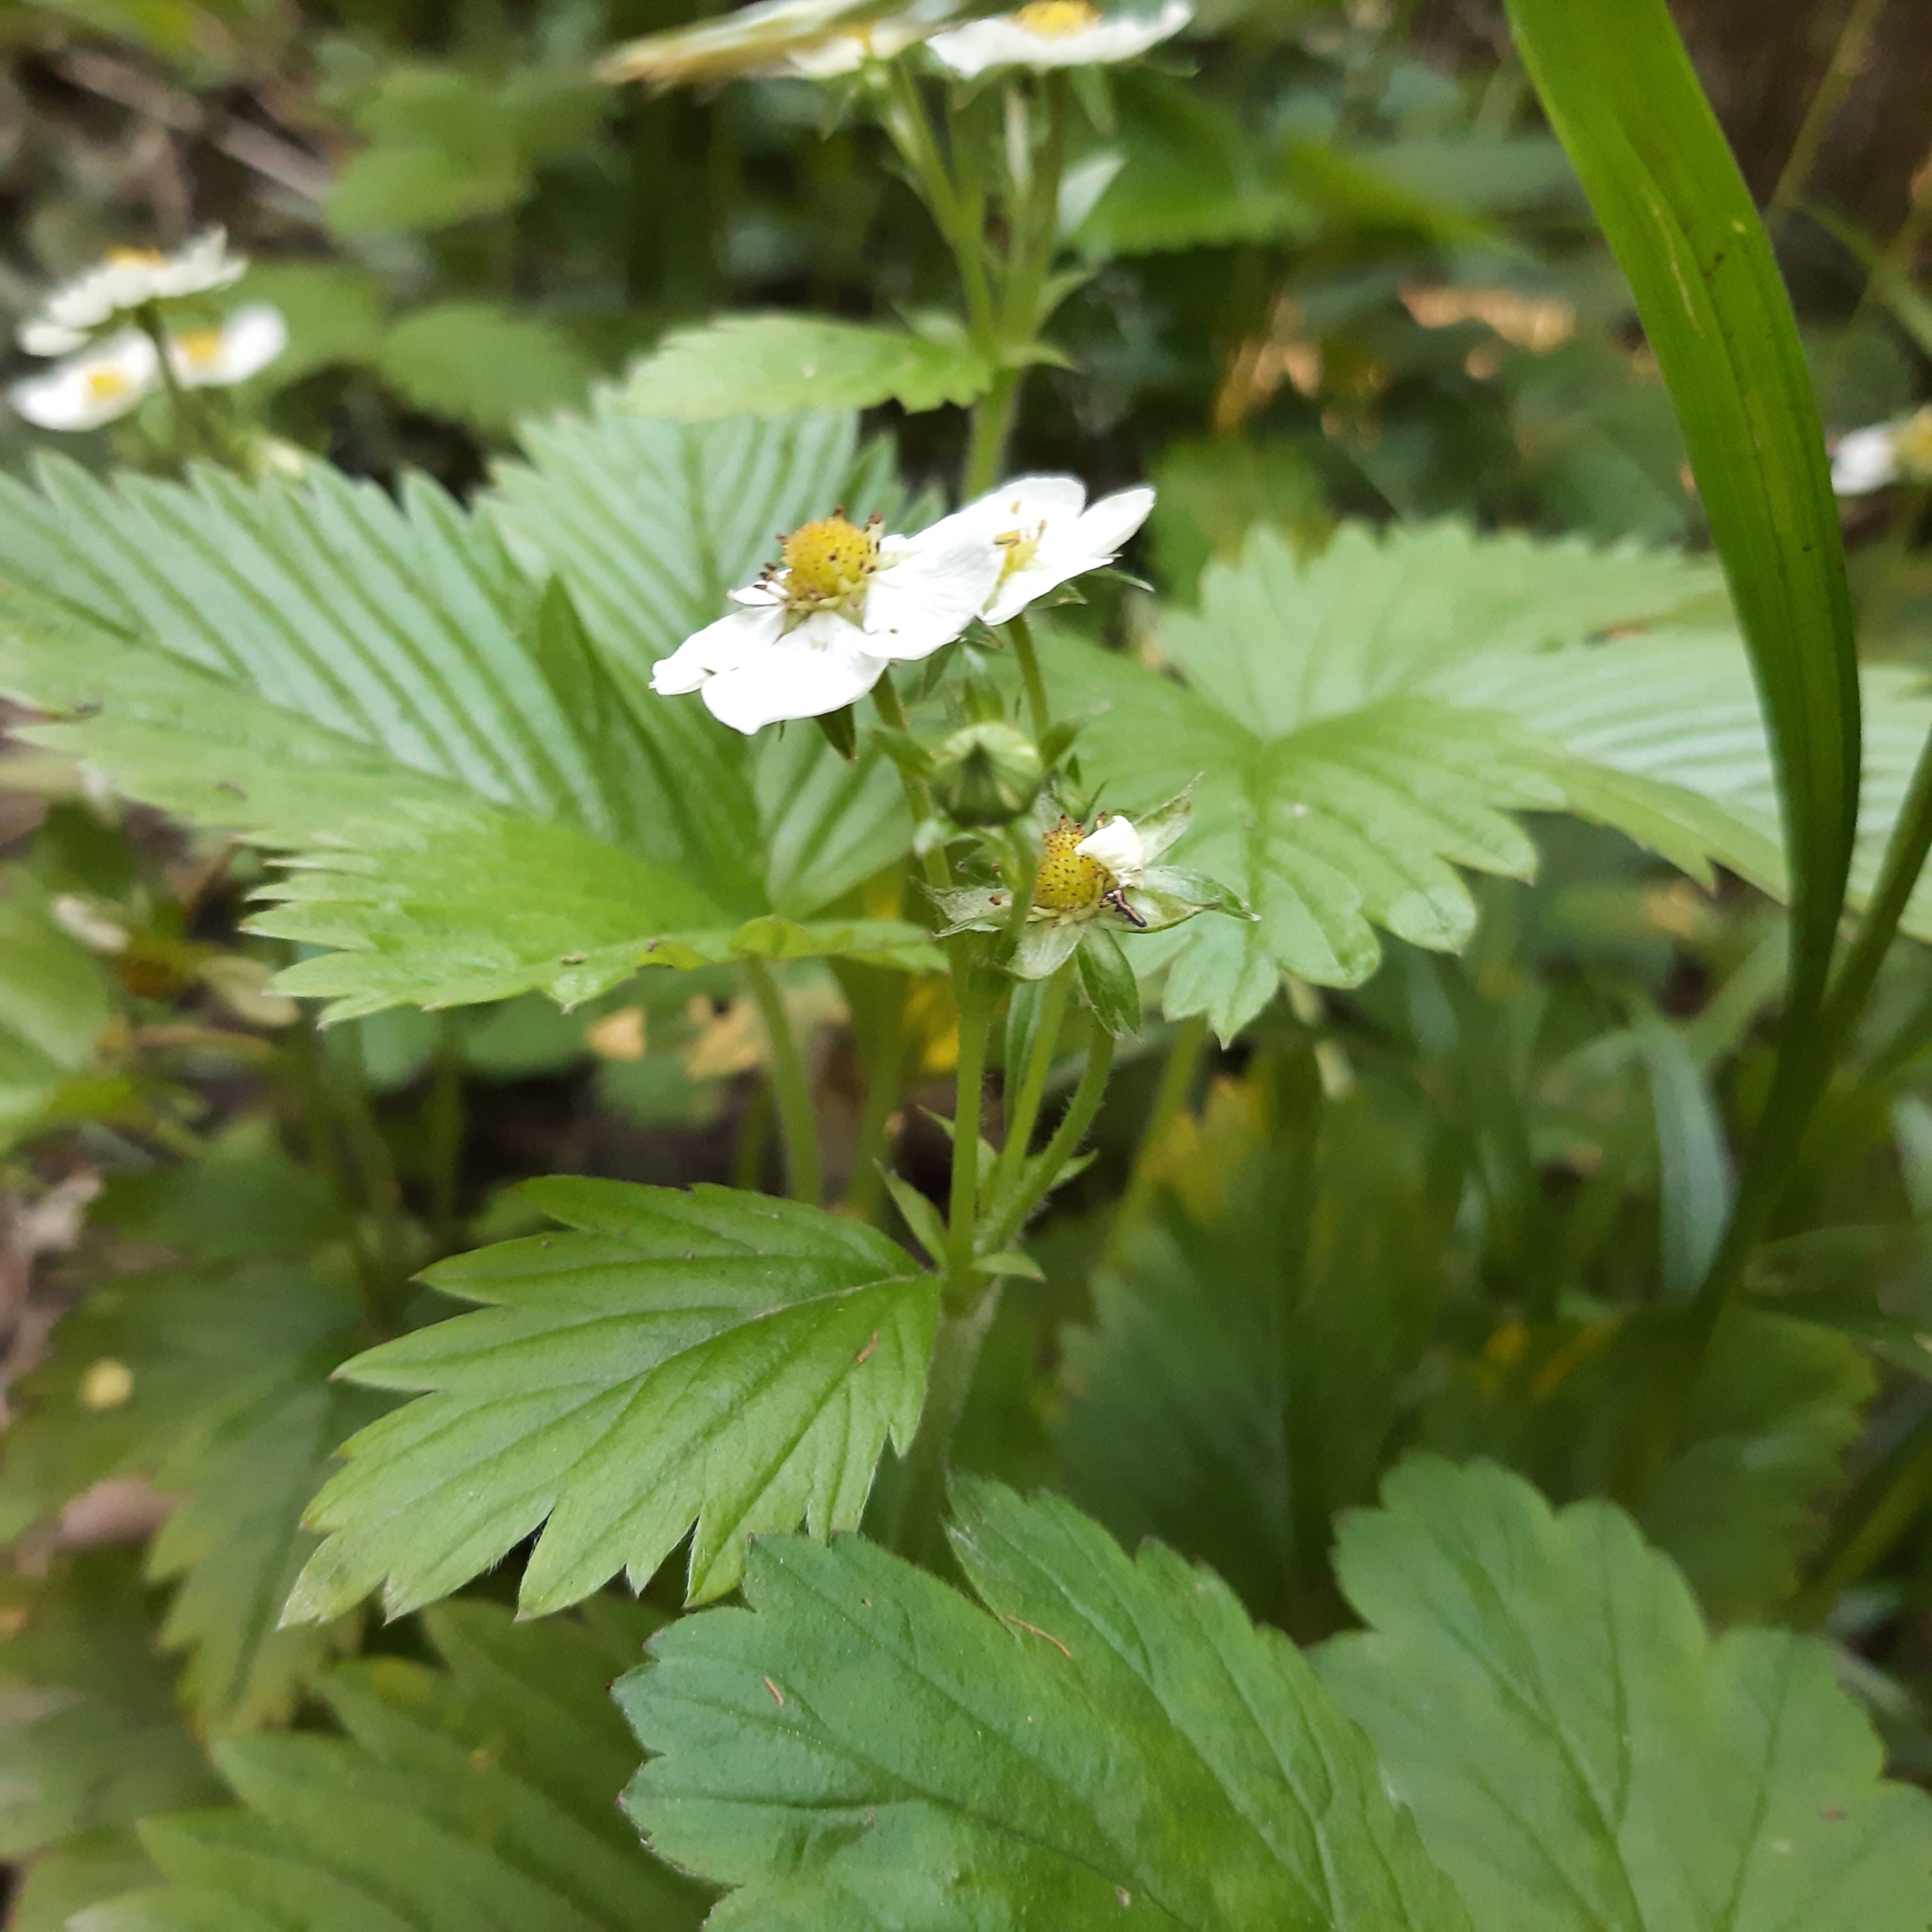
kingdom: Plantae
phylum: Tracheophyta
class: Magnoliopsida
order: Rosales
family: Rosaceae
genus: Fragaria
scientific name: Fragaria vesca
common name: Wild strawberry
